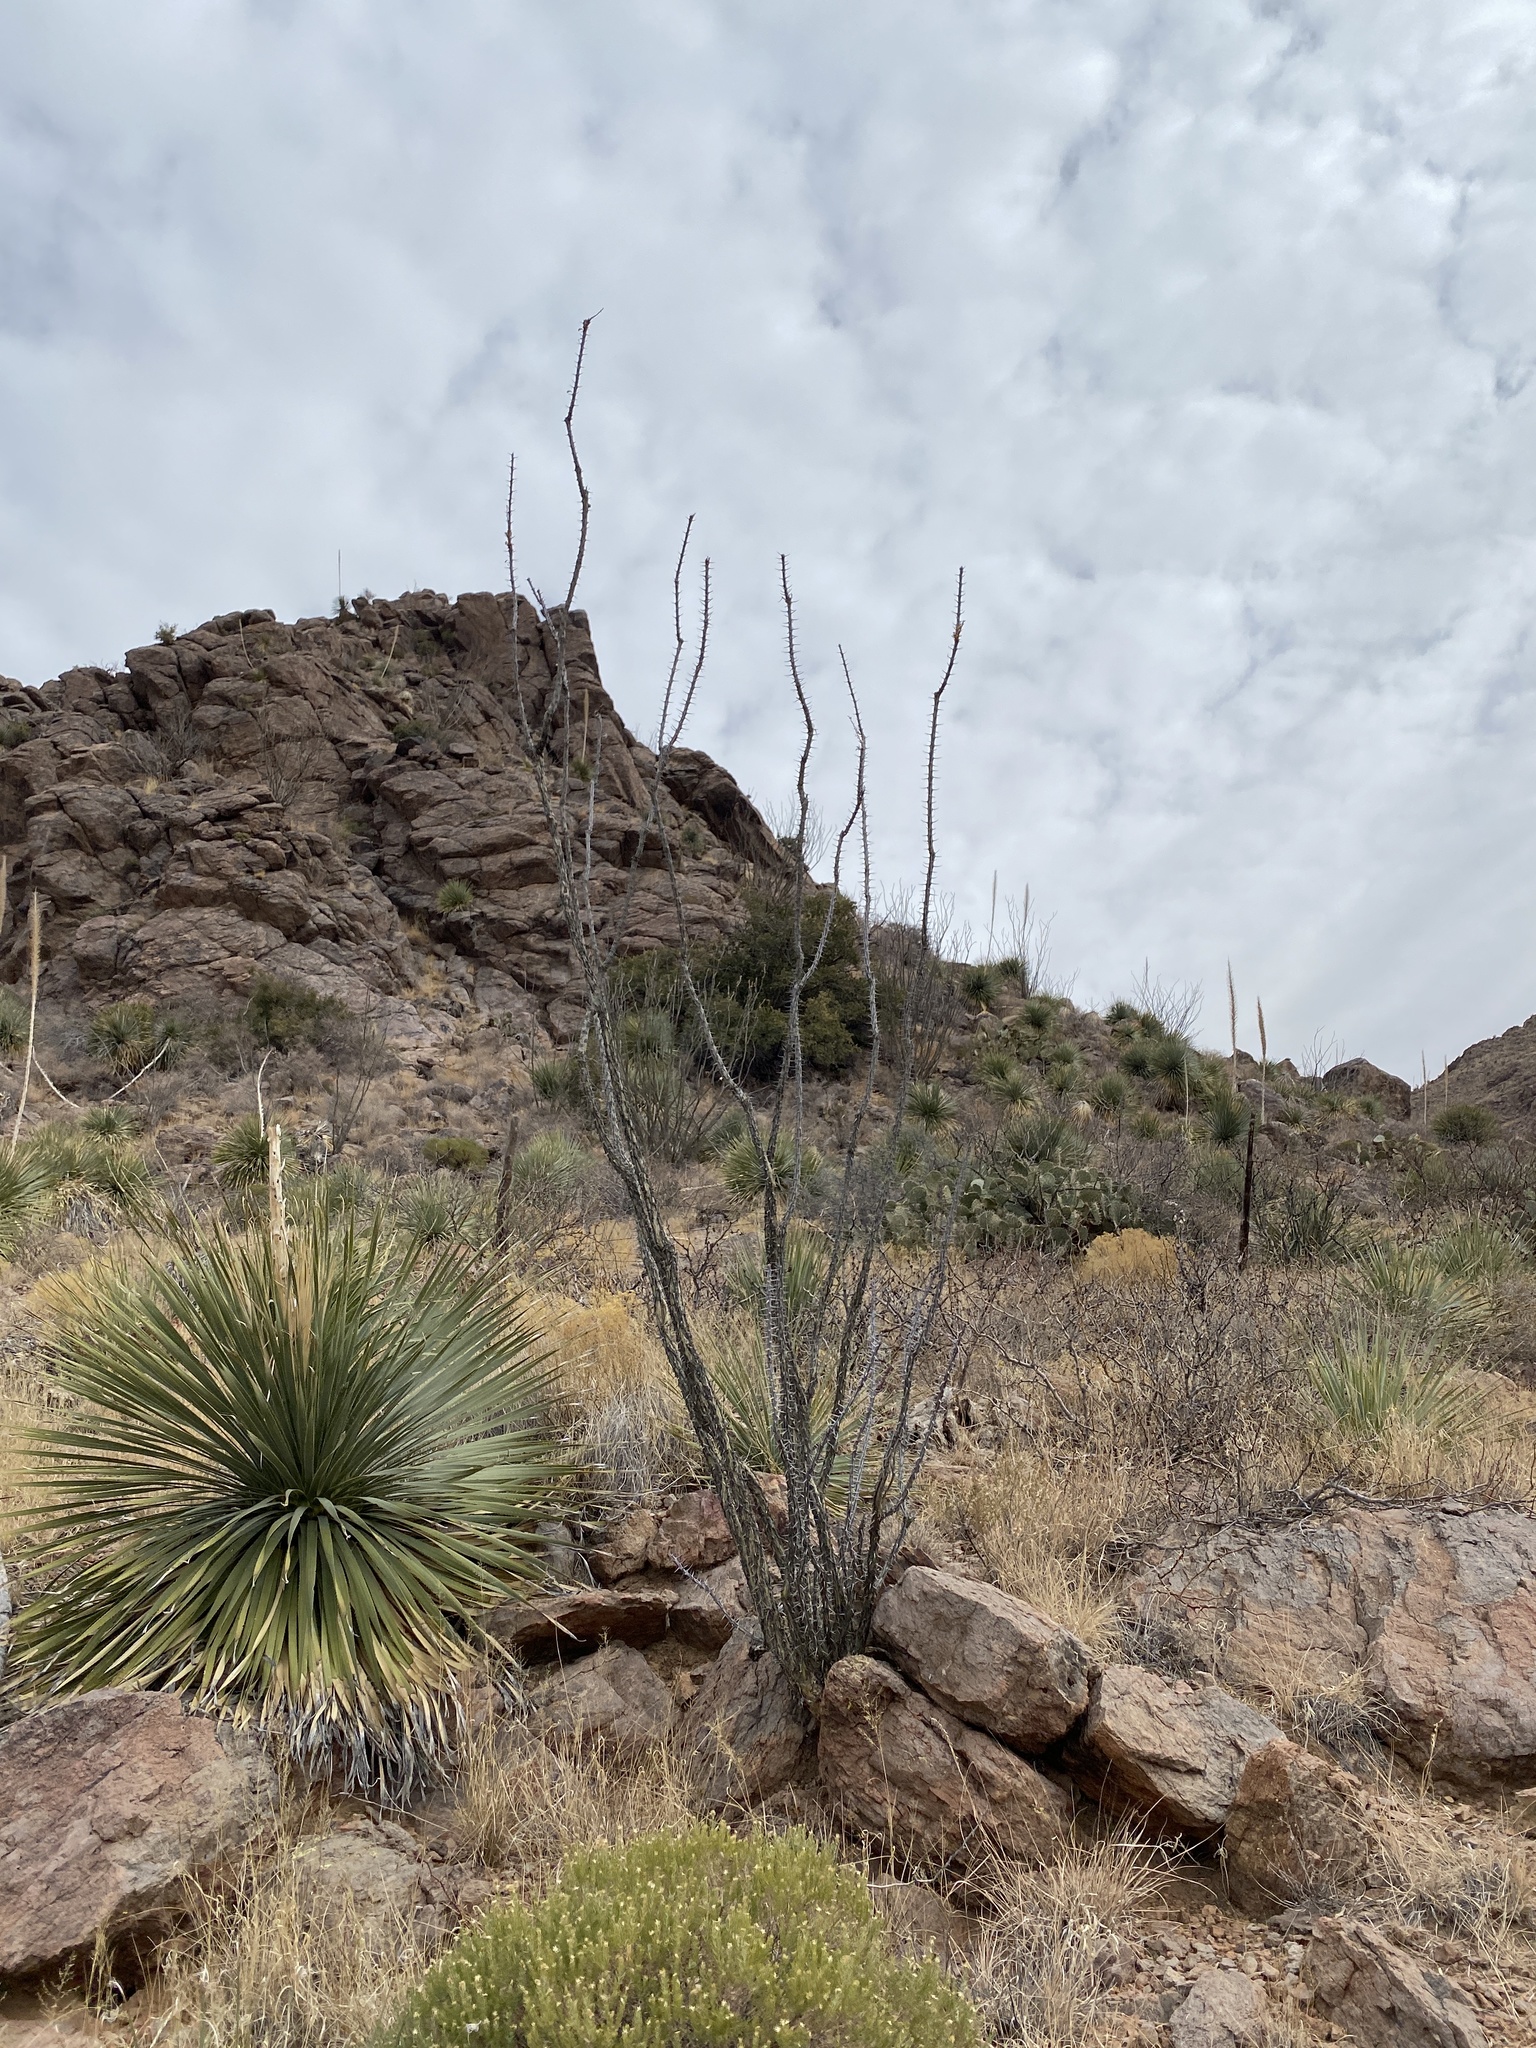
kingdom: Plantae
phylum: Tracheophyta
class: Magnoliopsida
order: Ericales
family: Fouquieriaceae
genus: Fouquieria
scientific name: Fouquieria splendens
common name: Vine-cactus
